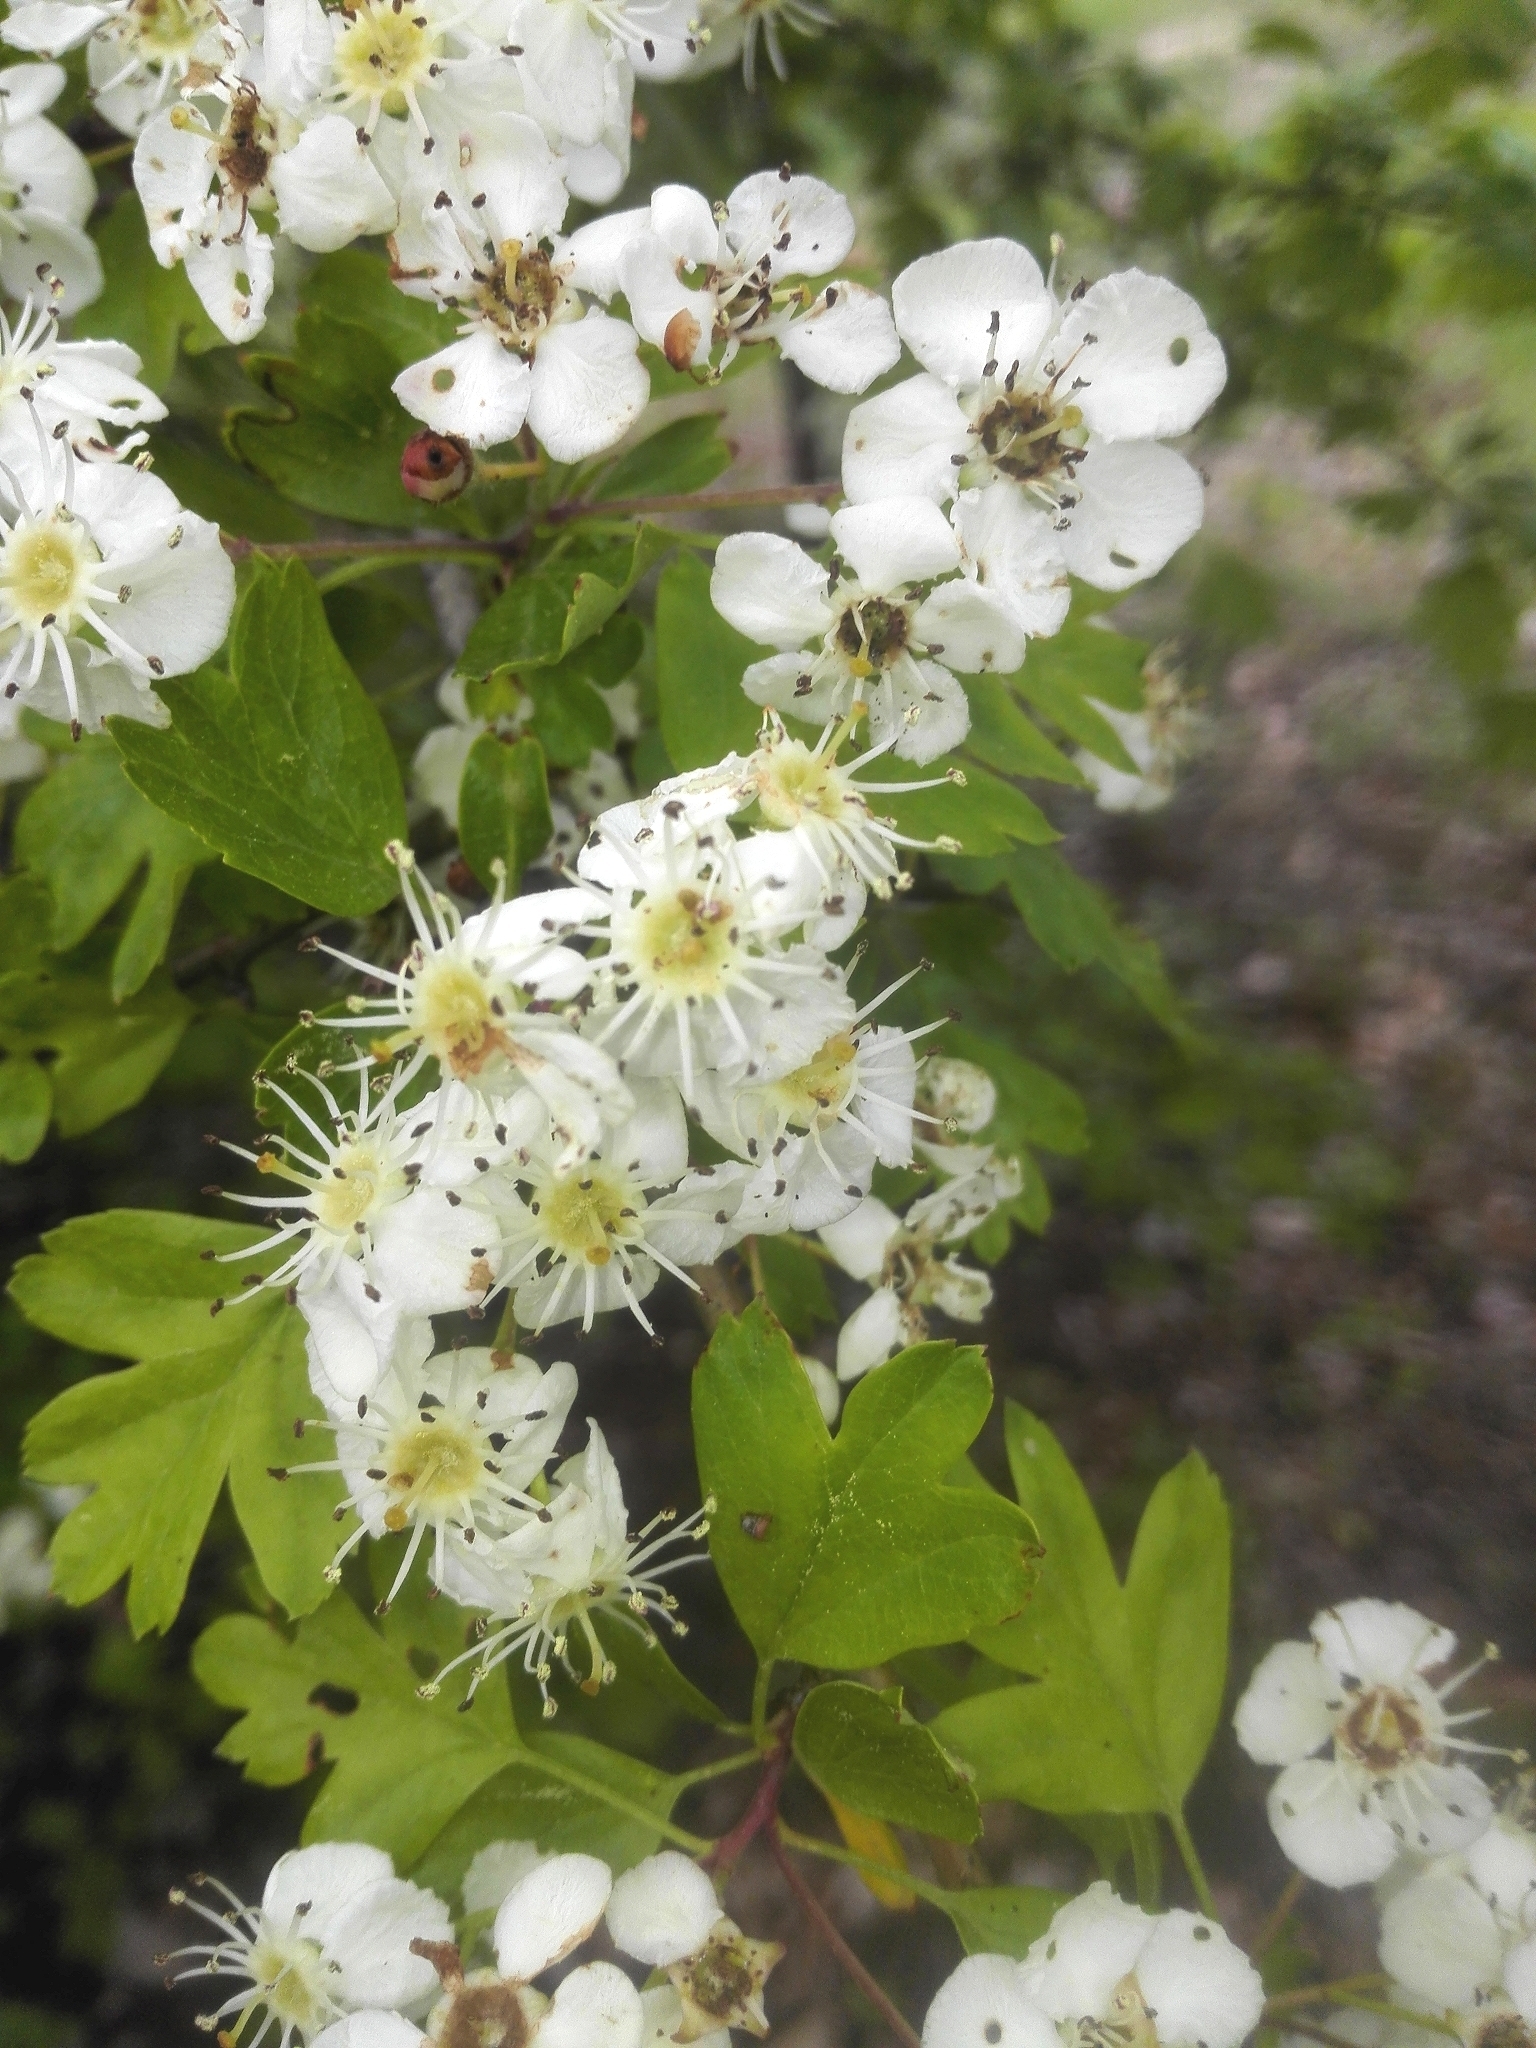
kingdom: Plantae
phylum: Tracheophyta
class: Magnoliopsida
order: Rosales
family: Rosaceae
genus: Crataegus
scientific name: Crataegus monogyna
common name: Hawthorn
